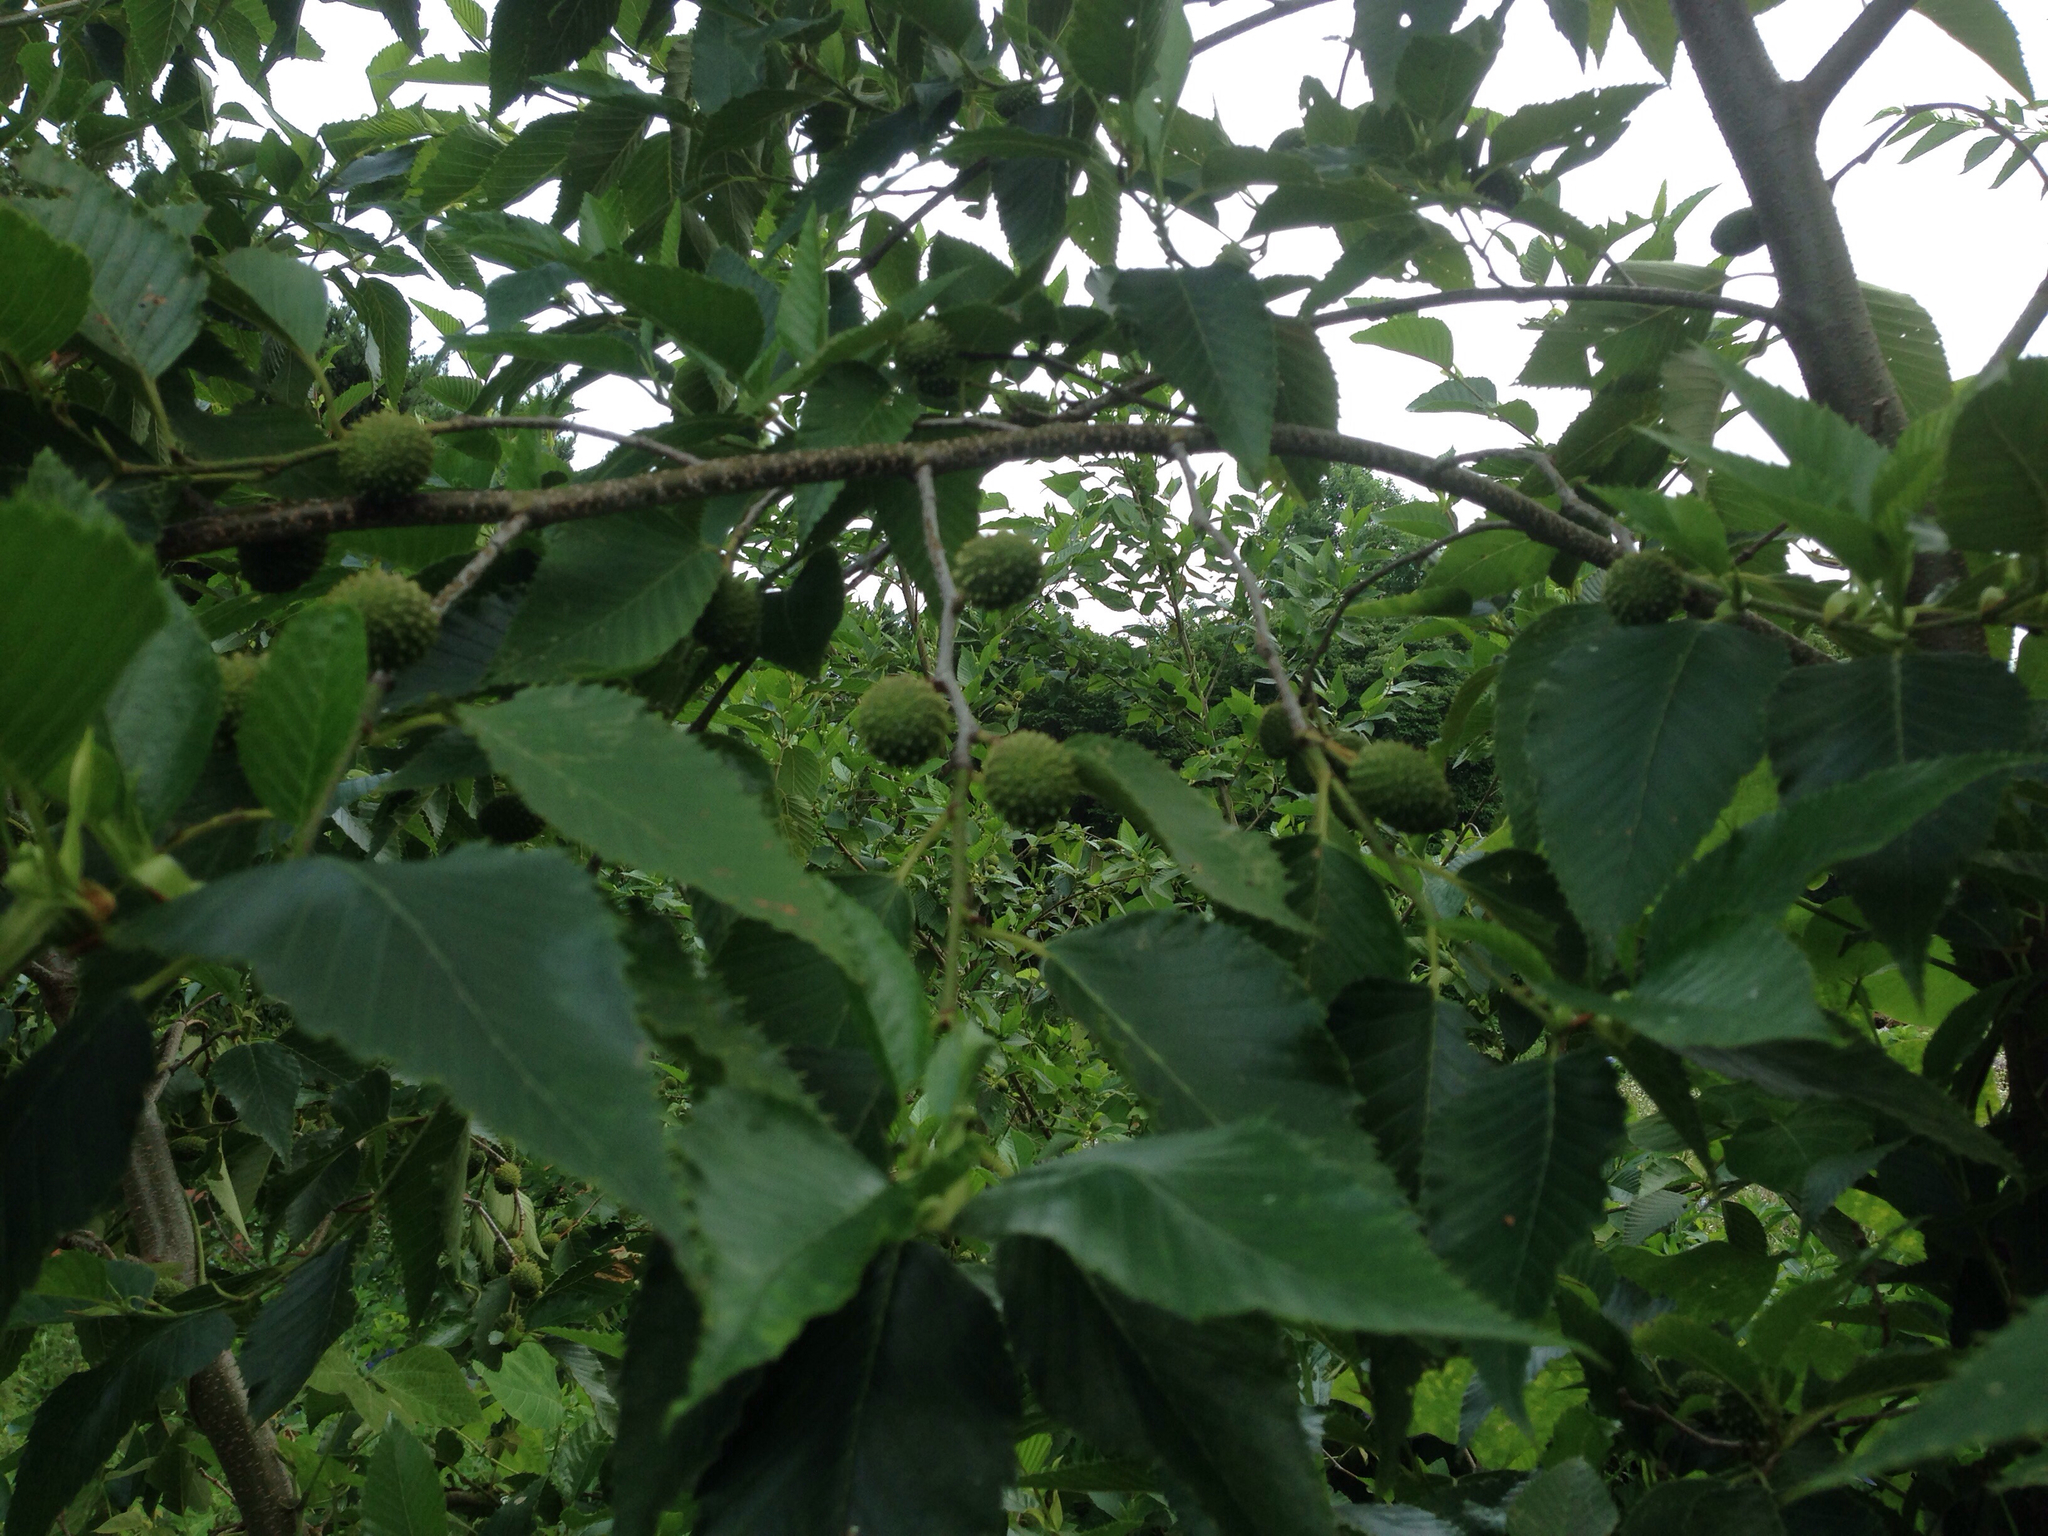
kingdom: Plantae
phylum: Tracheophyta
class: Magnoliopsida
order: Fagales
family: Betulaceae
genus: Alnus
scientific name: Alnus firma
